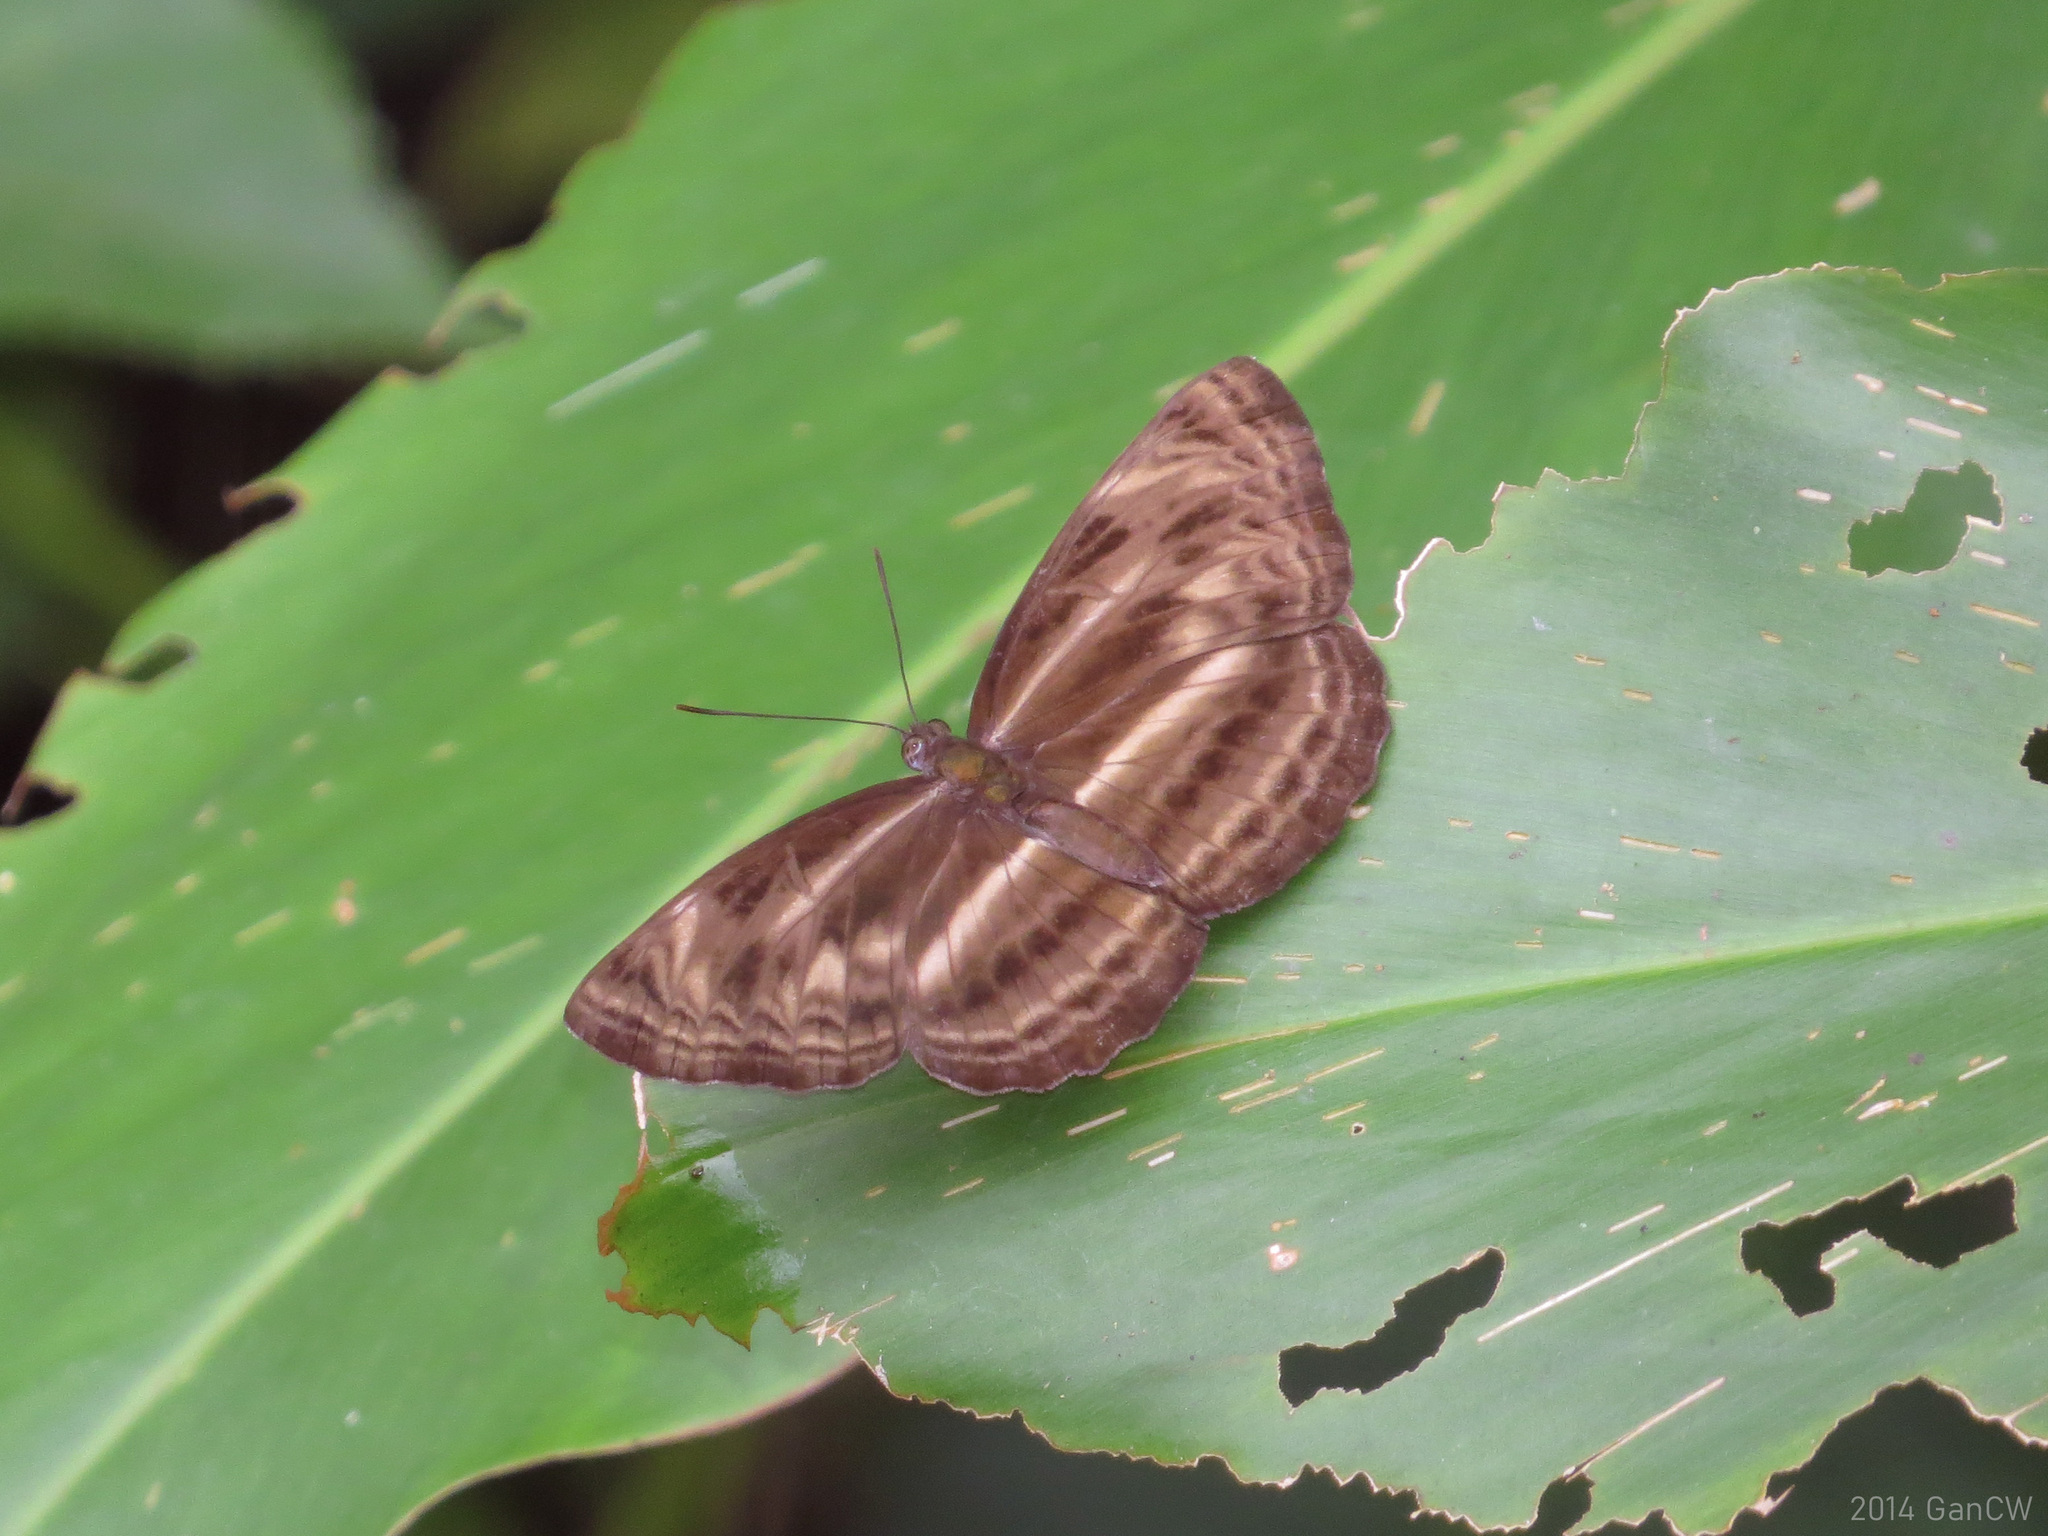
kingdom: Animalia
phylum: Arthropoda
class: Insecta
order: Lepidoptera
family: Nymphalidae
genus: Neptis
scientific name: Neptis harita
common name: Chocolate sailer
